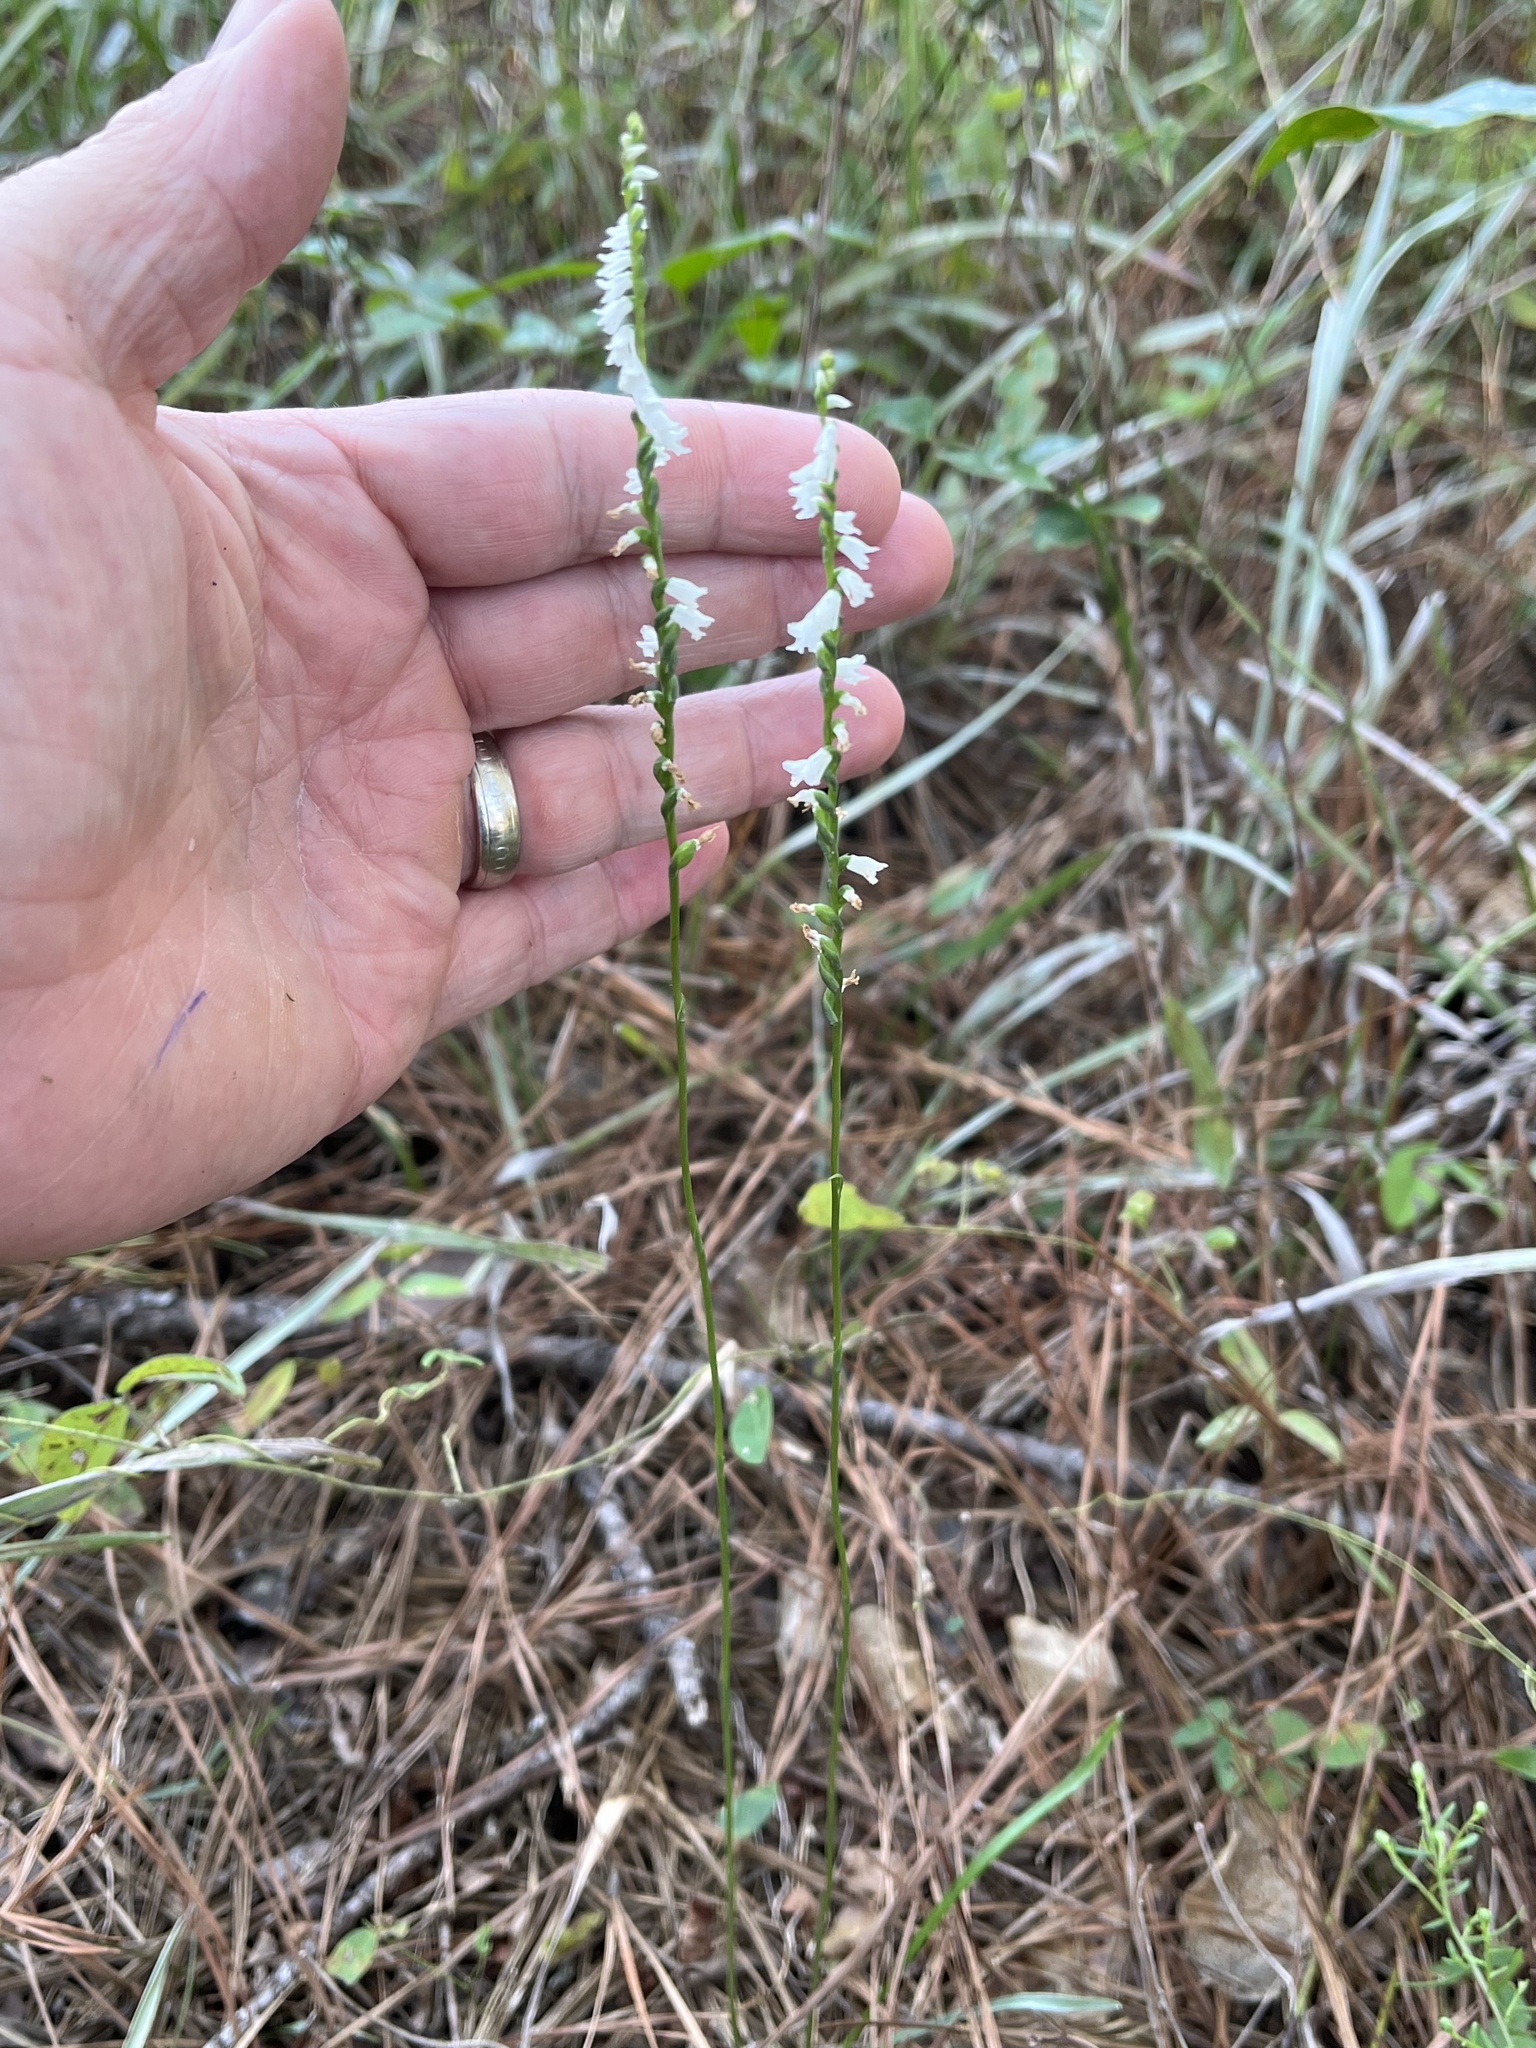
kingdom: Plantae
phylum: Tracheophyta
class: Liliopsida
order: Asparagales
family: Orchidaceae
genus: Spiranthes
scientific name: Spiranthes tuberosa
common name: Little ladies'-tresses
